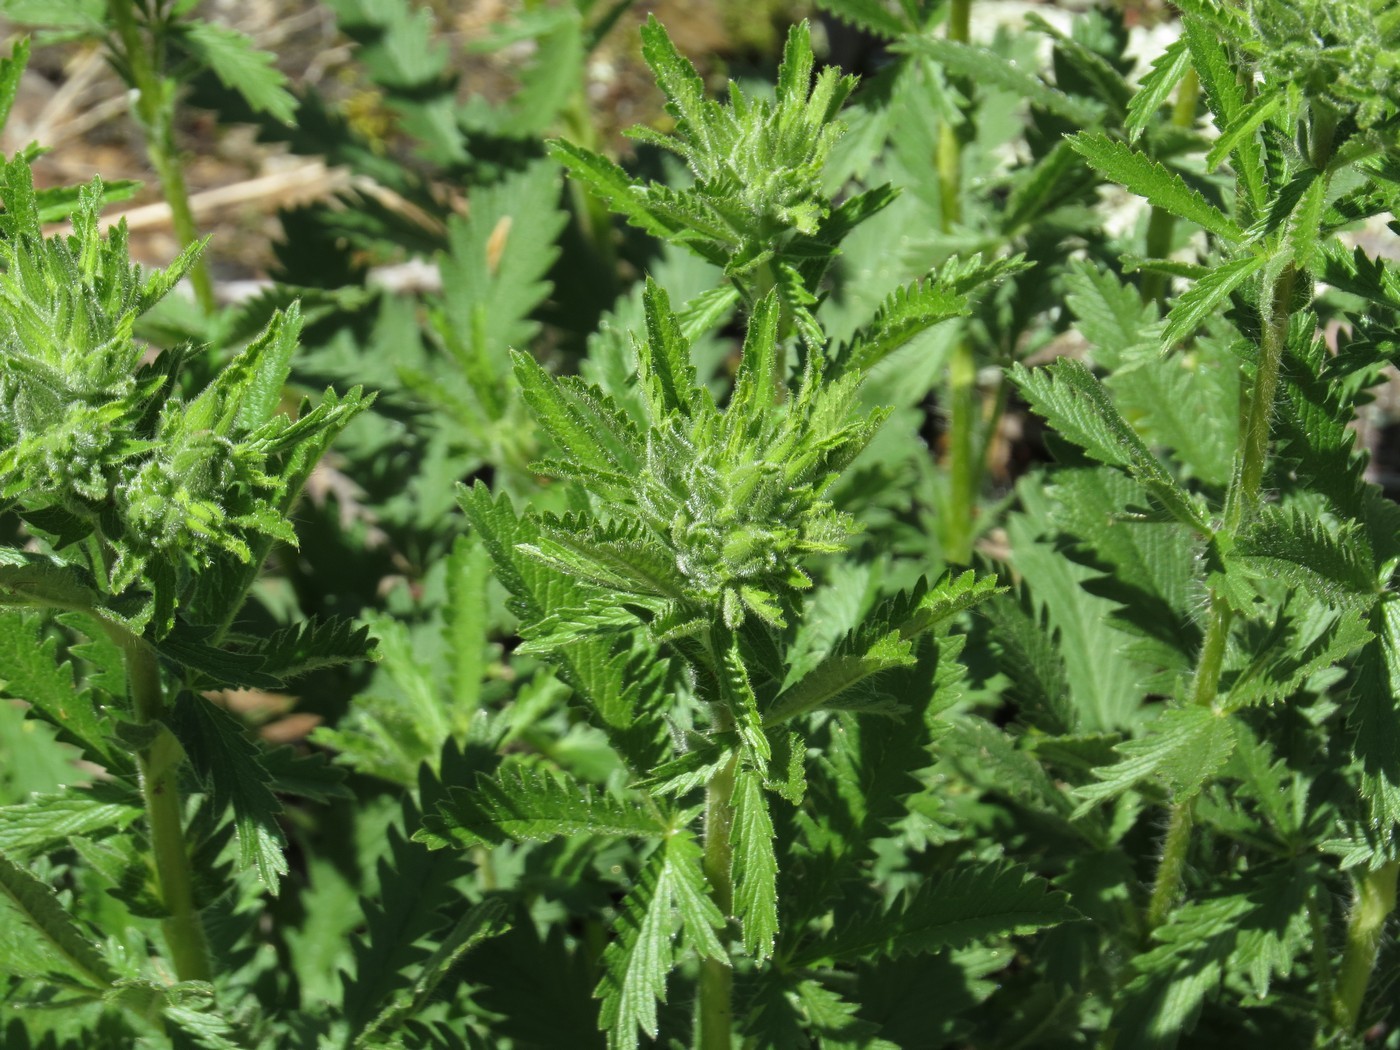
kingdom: Plantae
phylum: Tracheophyta
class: Magnoliopsida
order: Rosales
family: Rosaceae
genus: Potentilla
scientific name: Potentilla recta
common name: Sulphur cinquefoil
